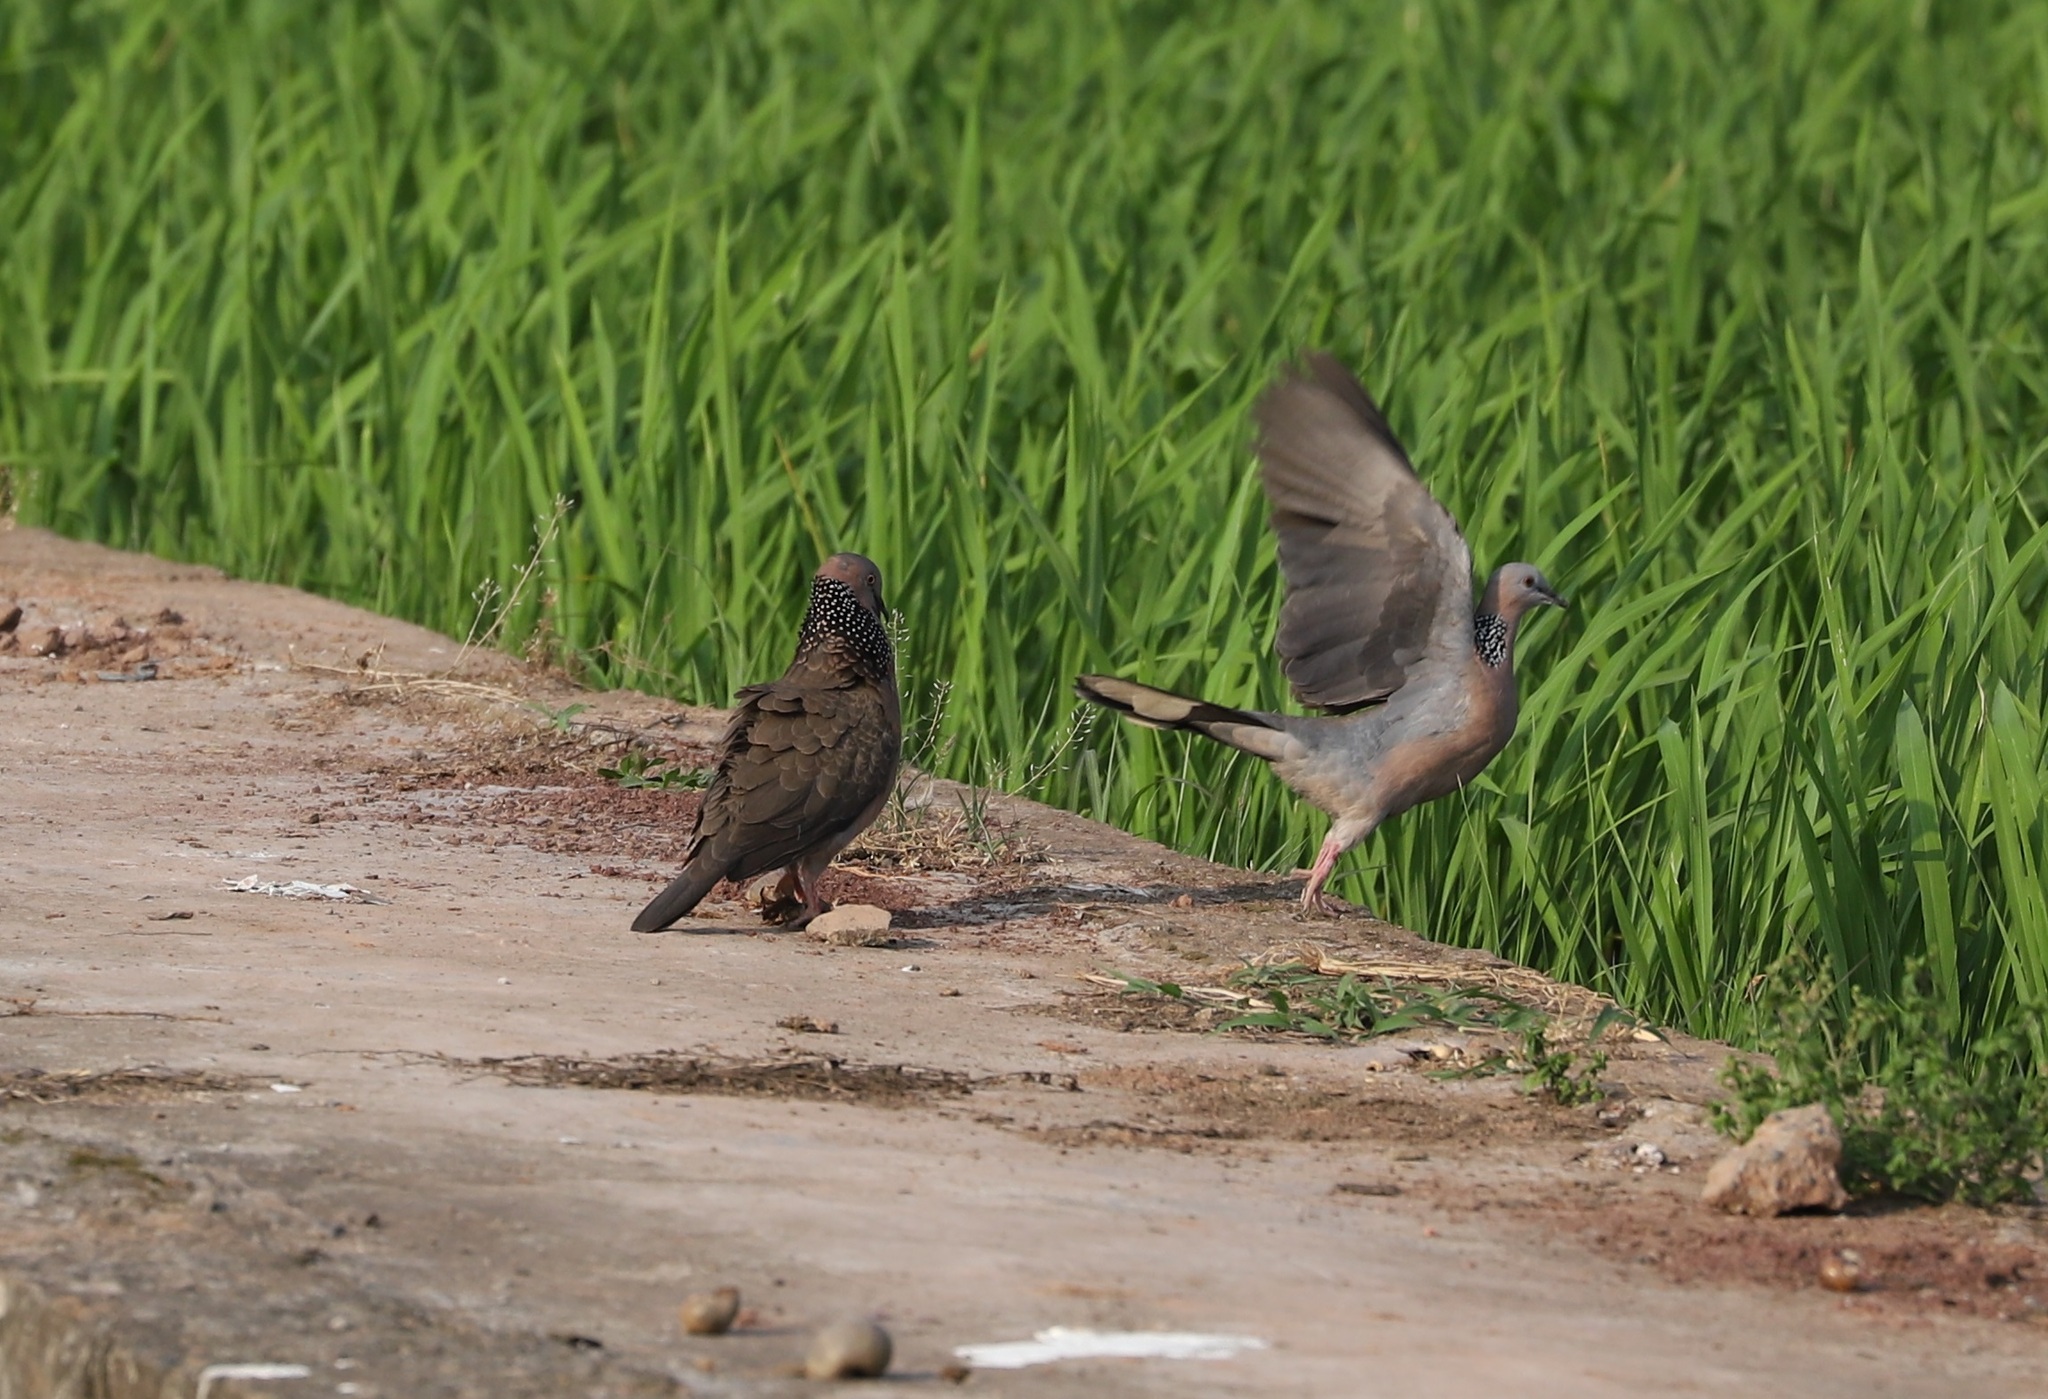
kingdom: Animalia
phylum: Chordata
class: Aves
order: Columbiformes
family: Columbidae
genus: Spilopelia
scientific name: Spilopelia chinensis
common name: Spotted dove
